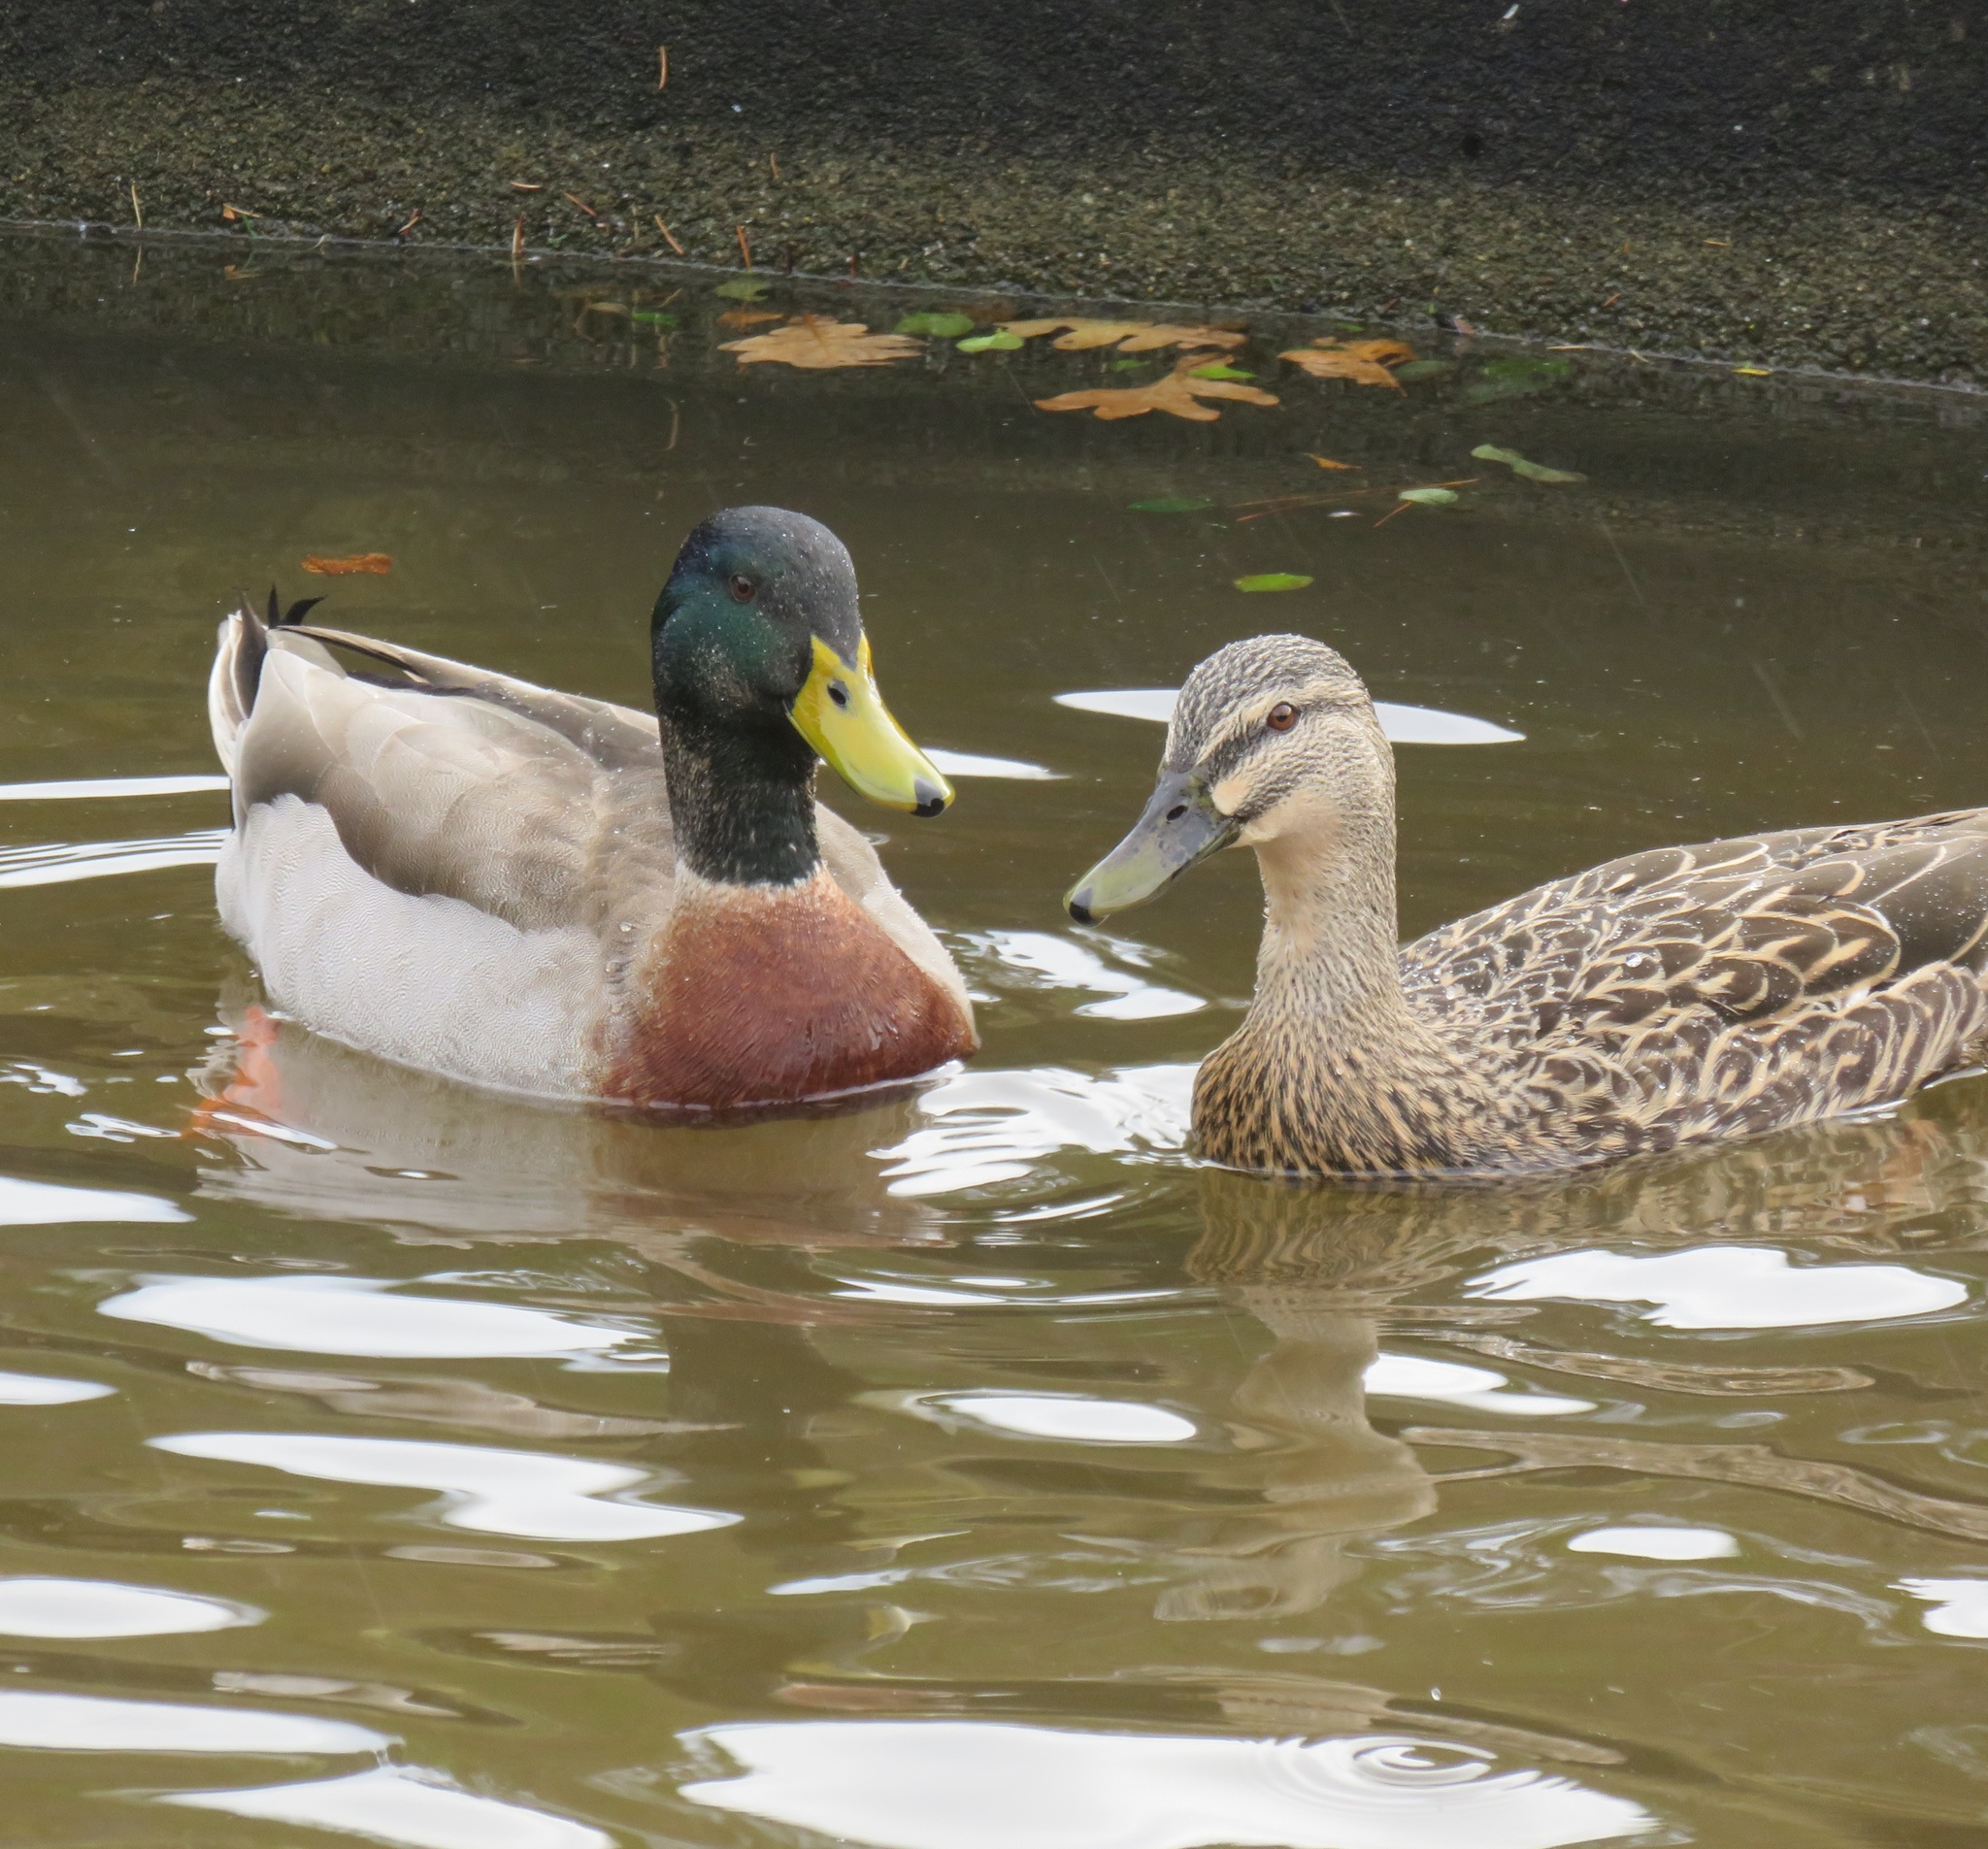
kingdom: Animalia
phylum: Chordata
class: Aves
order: Anseriformes
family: Anatidae
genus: Anas
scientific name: Anas platyrhynchos
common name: Mallard
